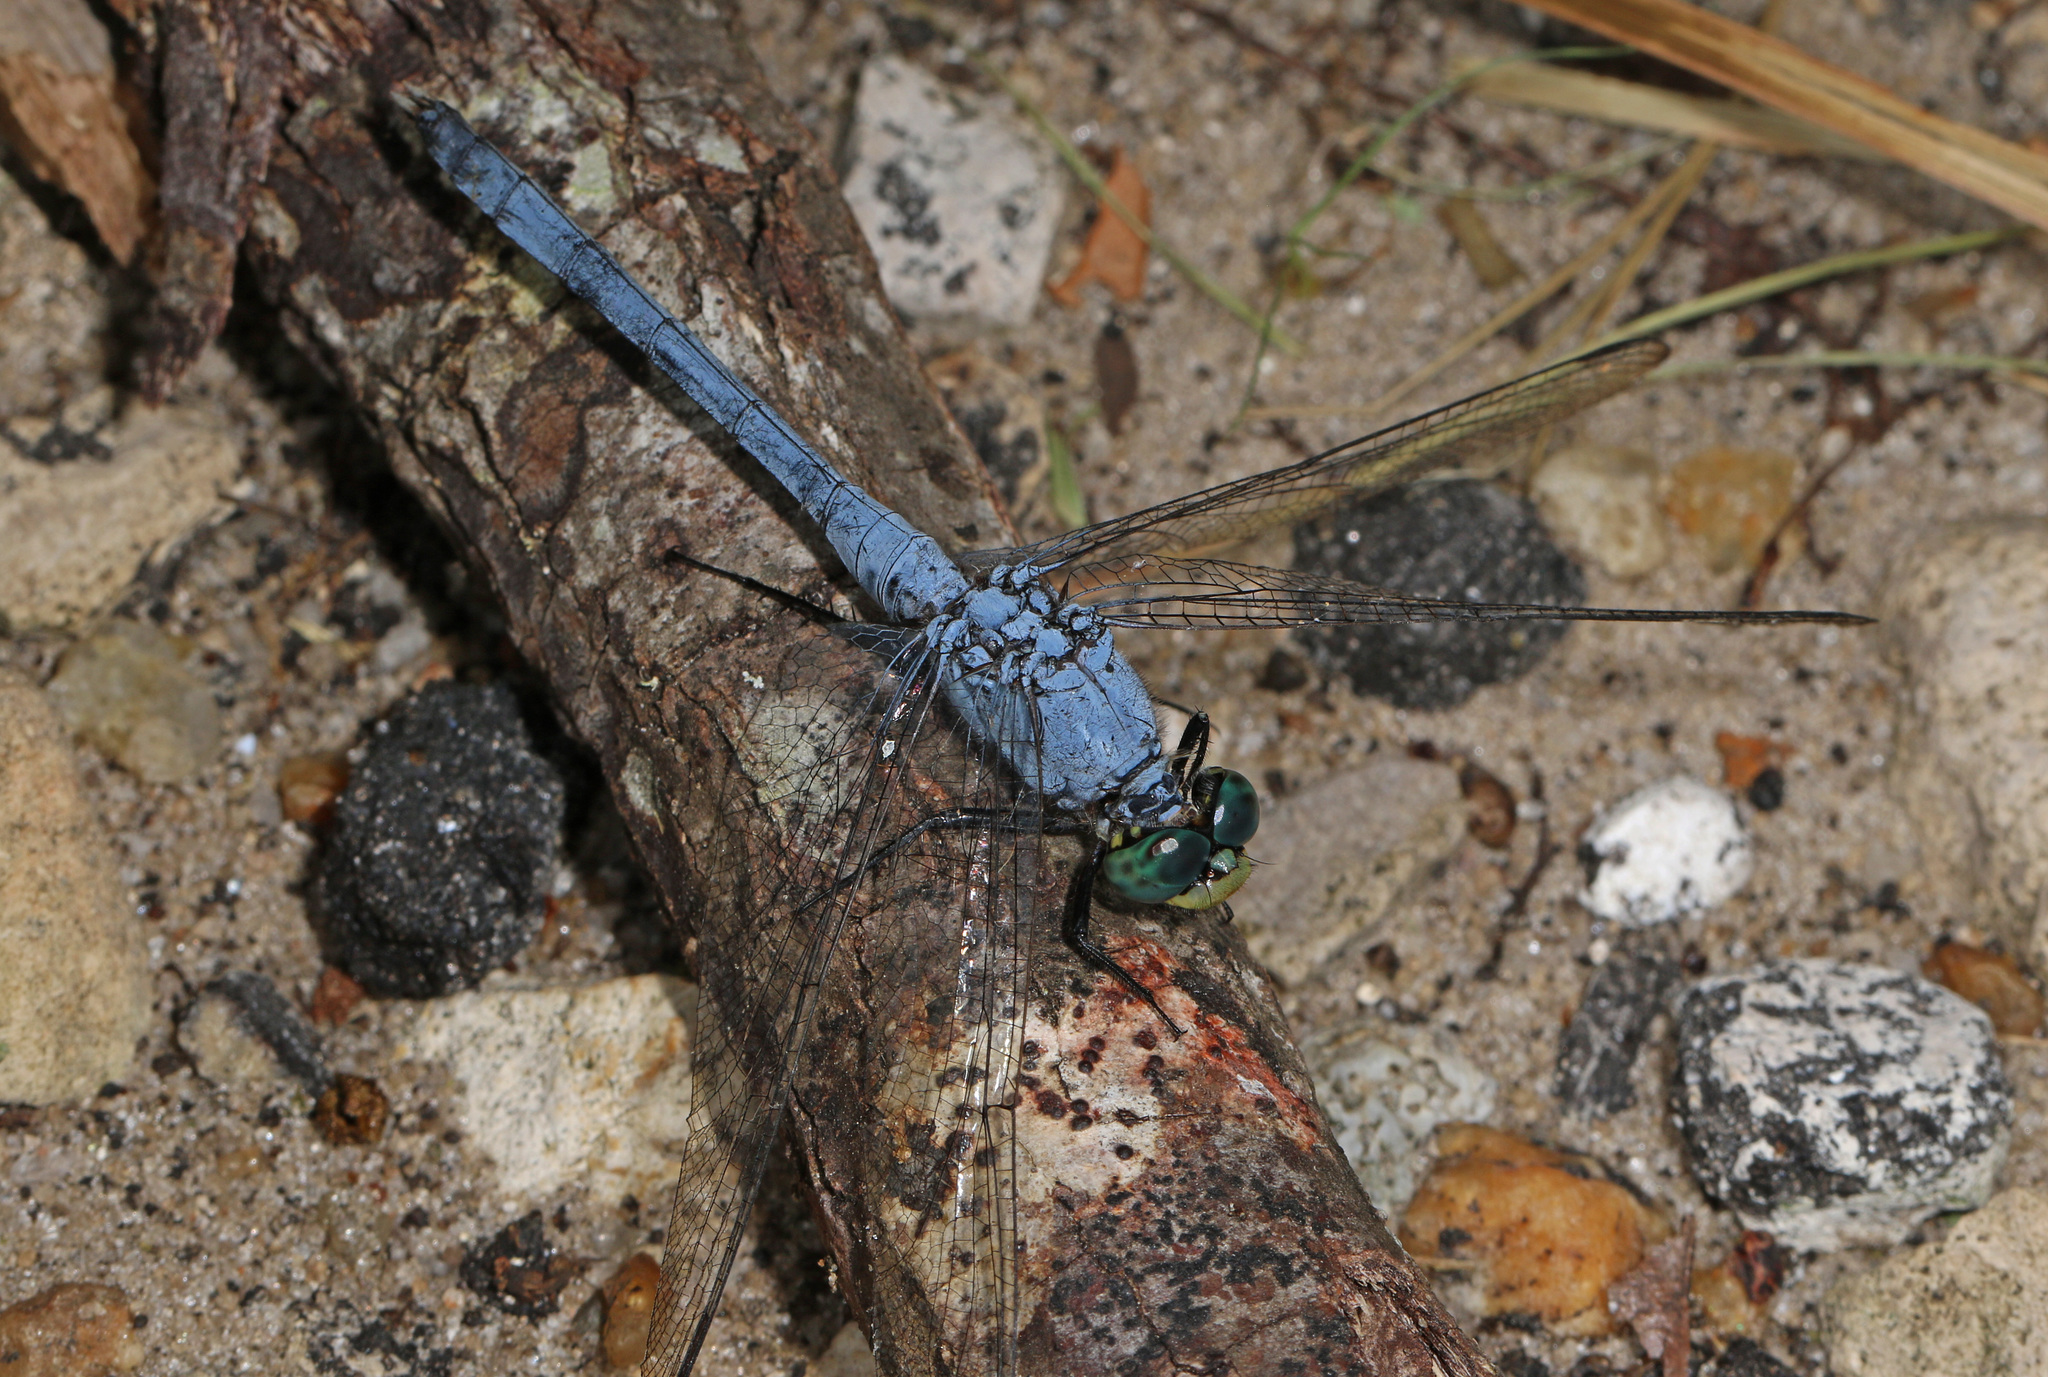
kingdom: Animalia
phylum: Arthropoda
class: Insecta
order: Odonata
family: Libellulidae
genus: Erythemis
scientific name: Erythemis simplicicollis
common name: Eastern pondhawk
